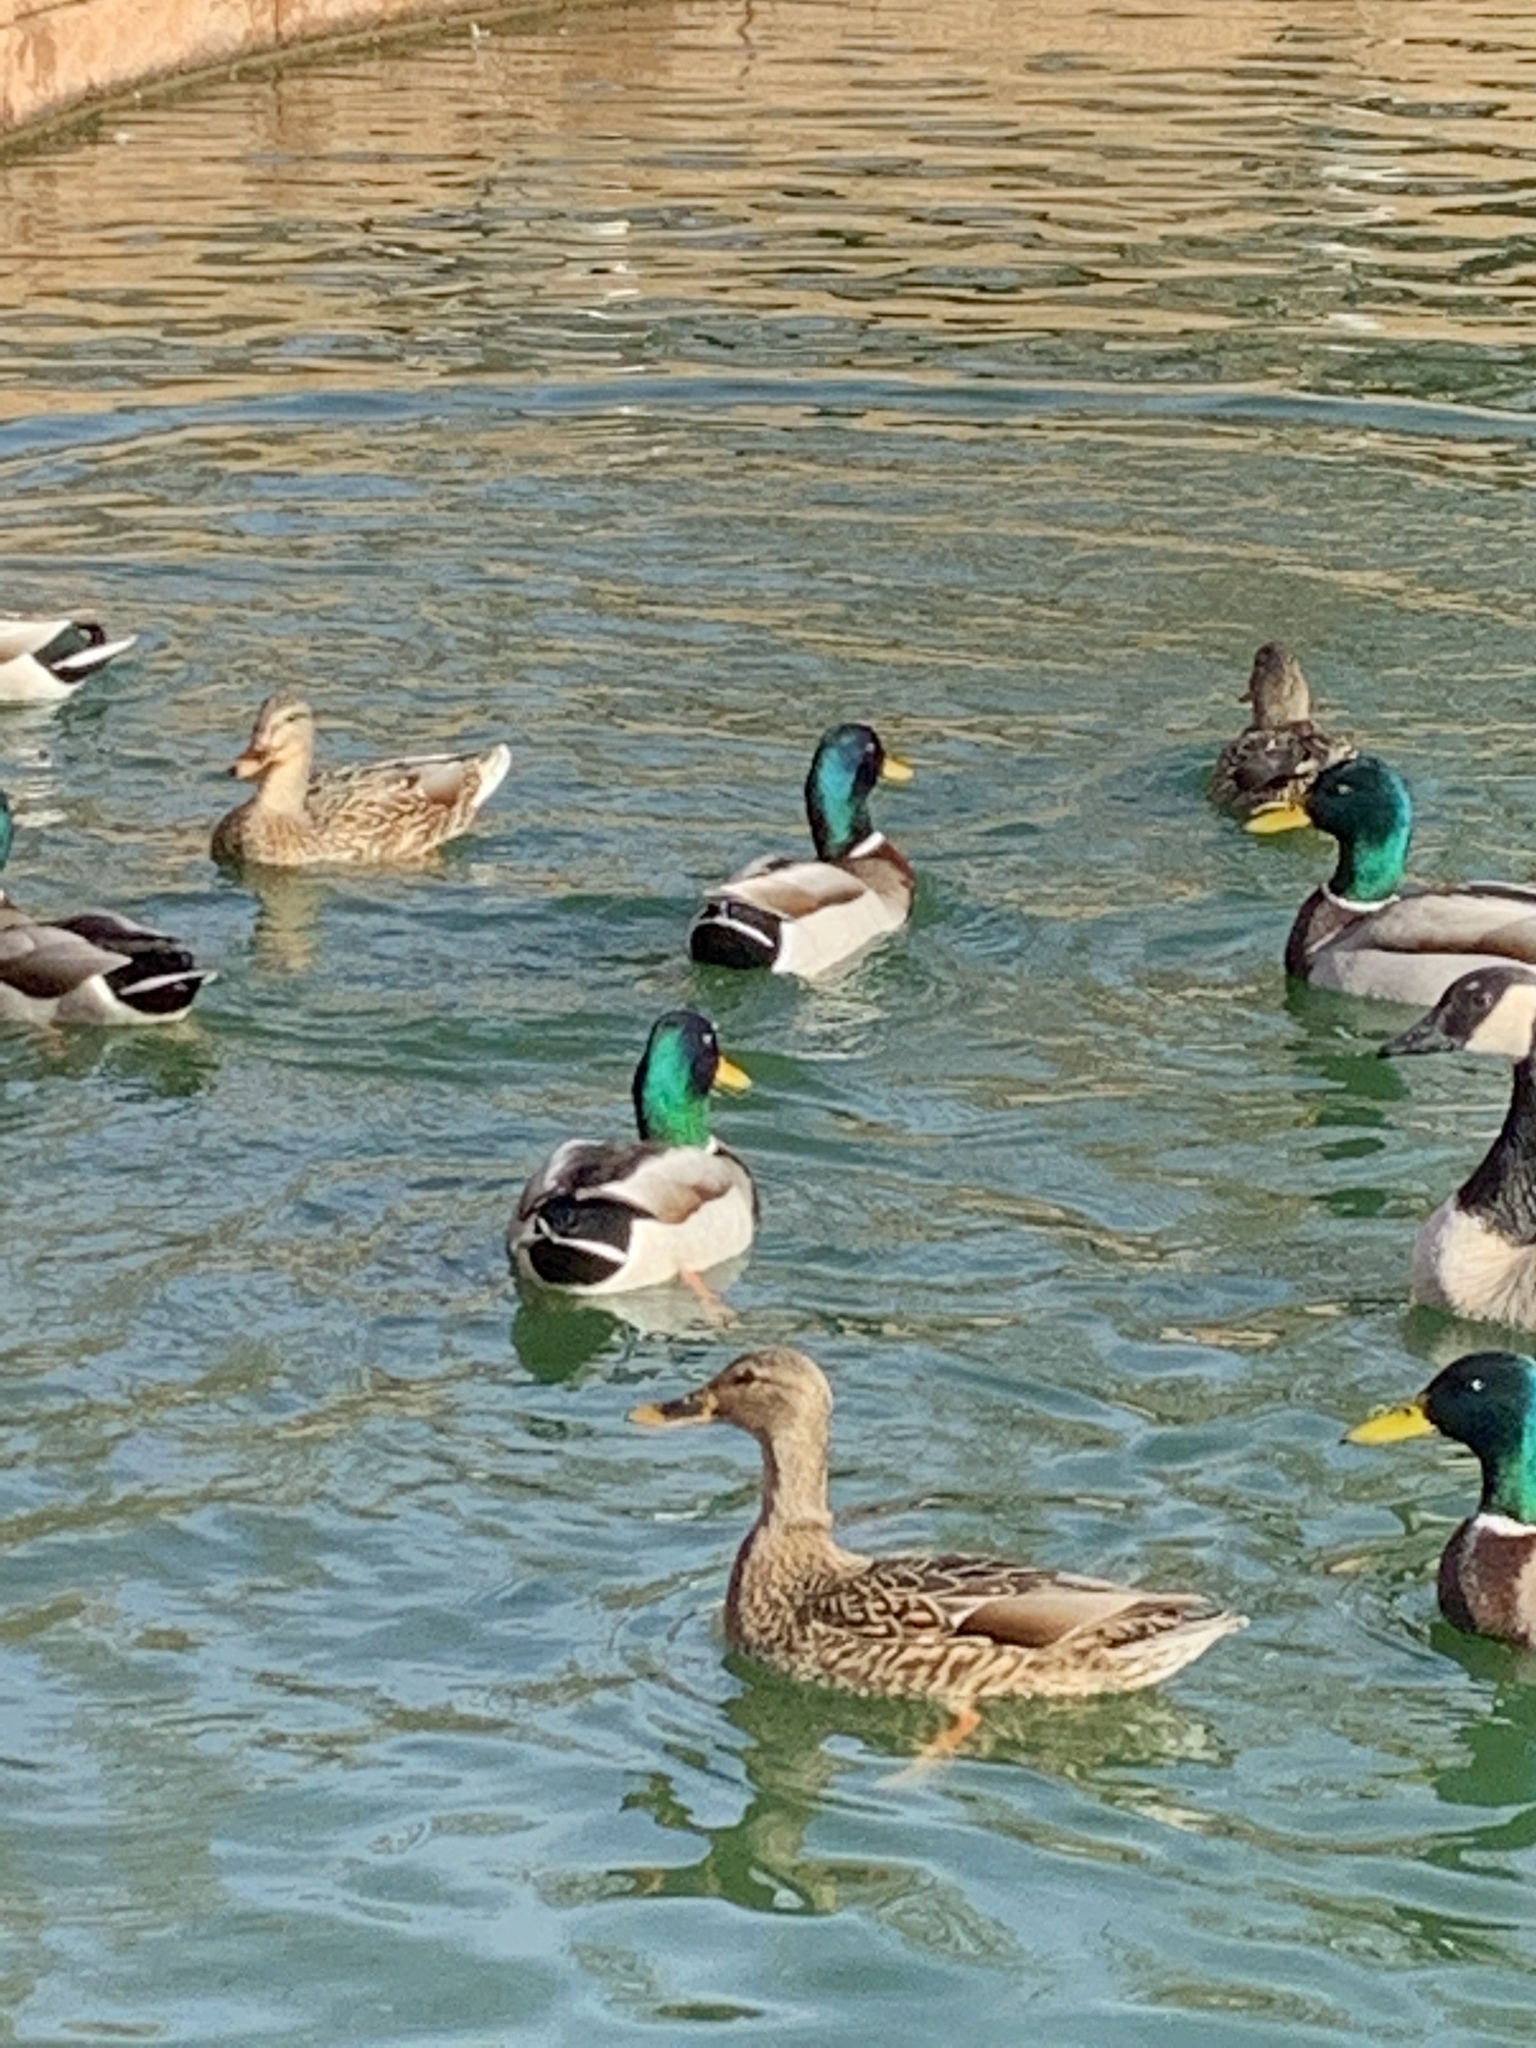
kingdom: Animalia
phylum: Chordata
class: Aves
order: Anseriformes
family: Anatidae
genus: Anas
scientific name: Anas platyrhynchos
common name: Mallard
